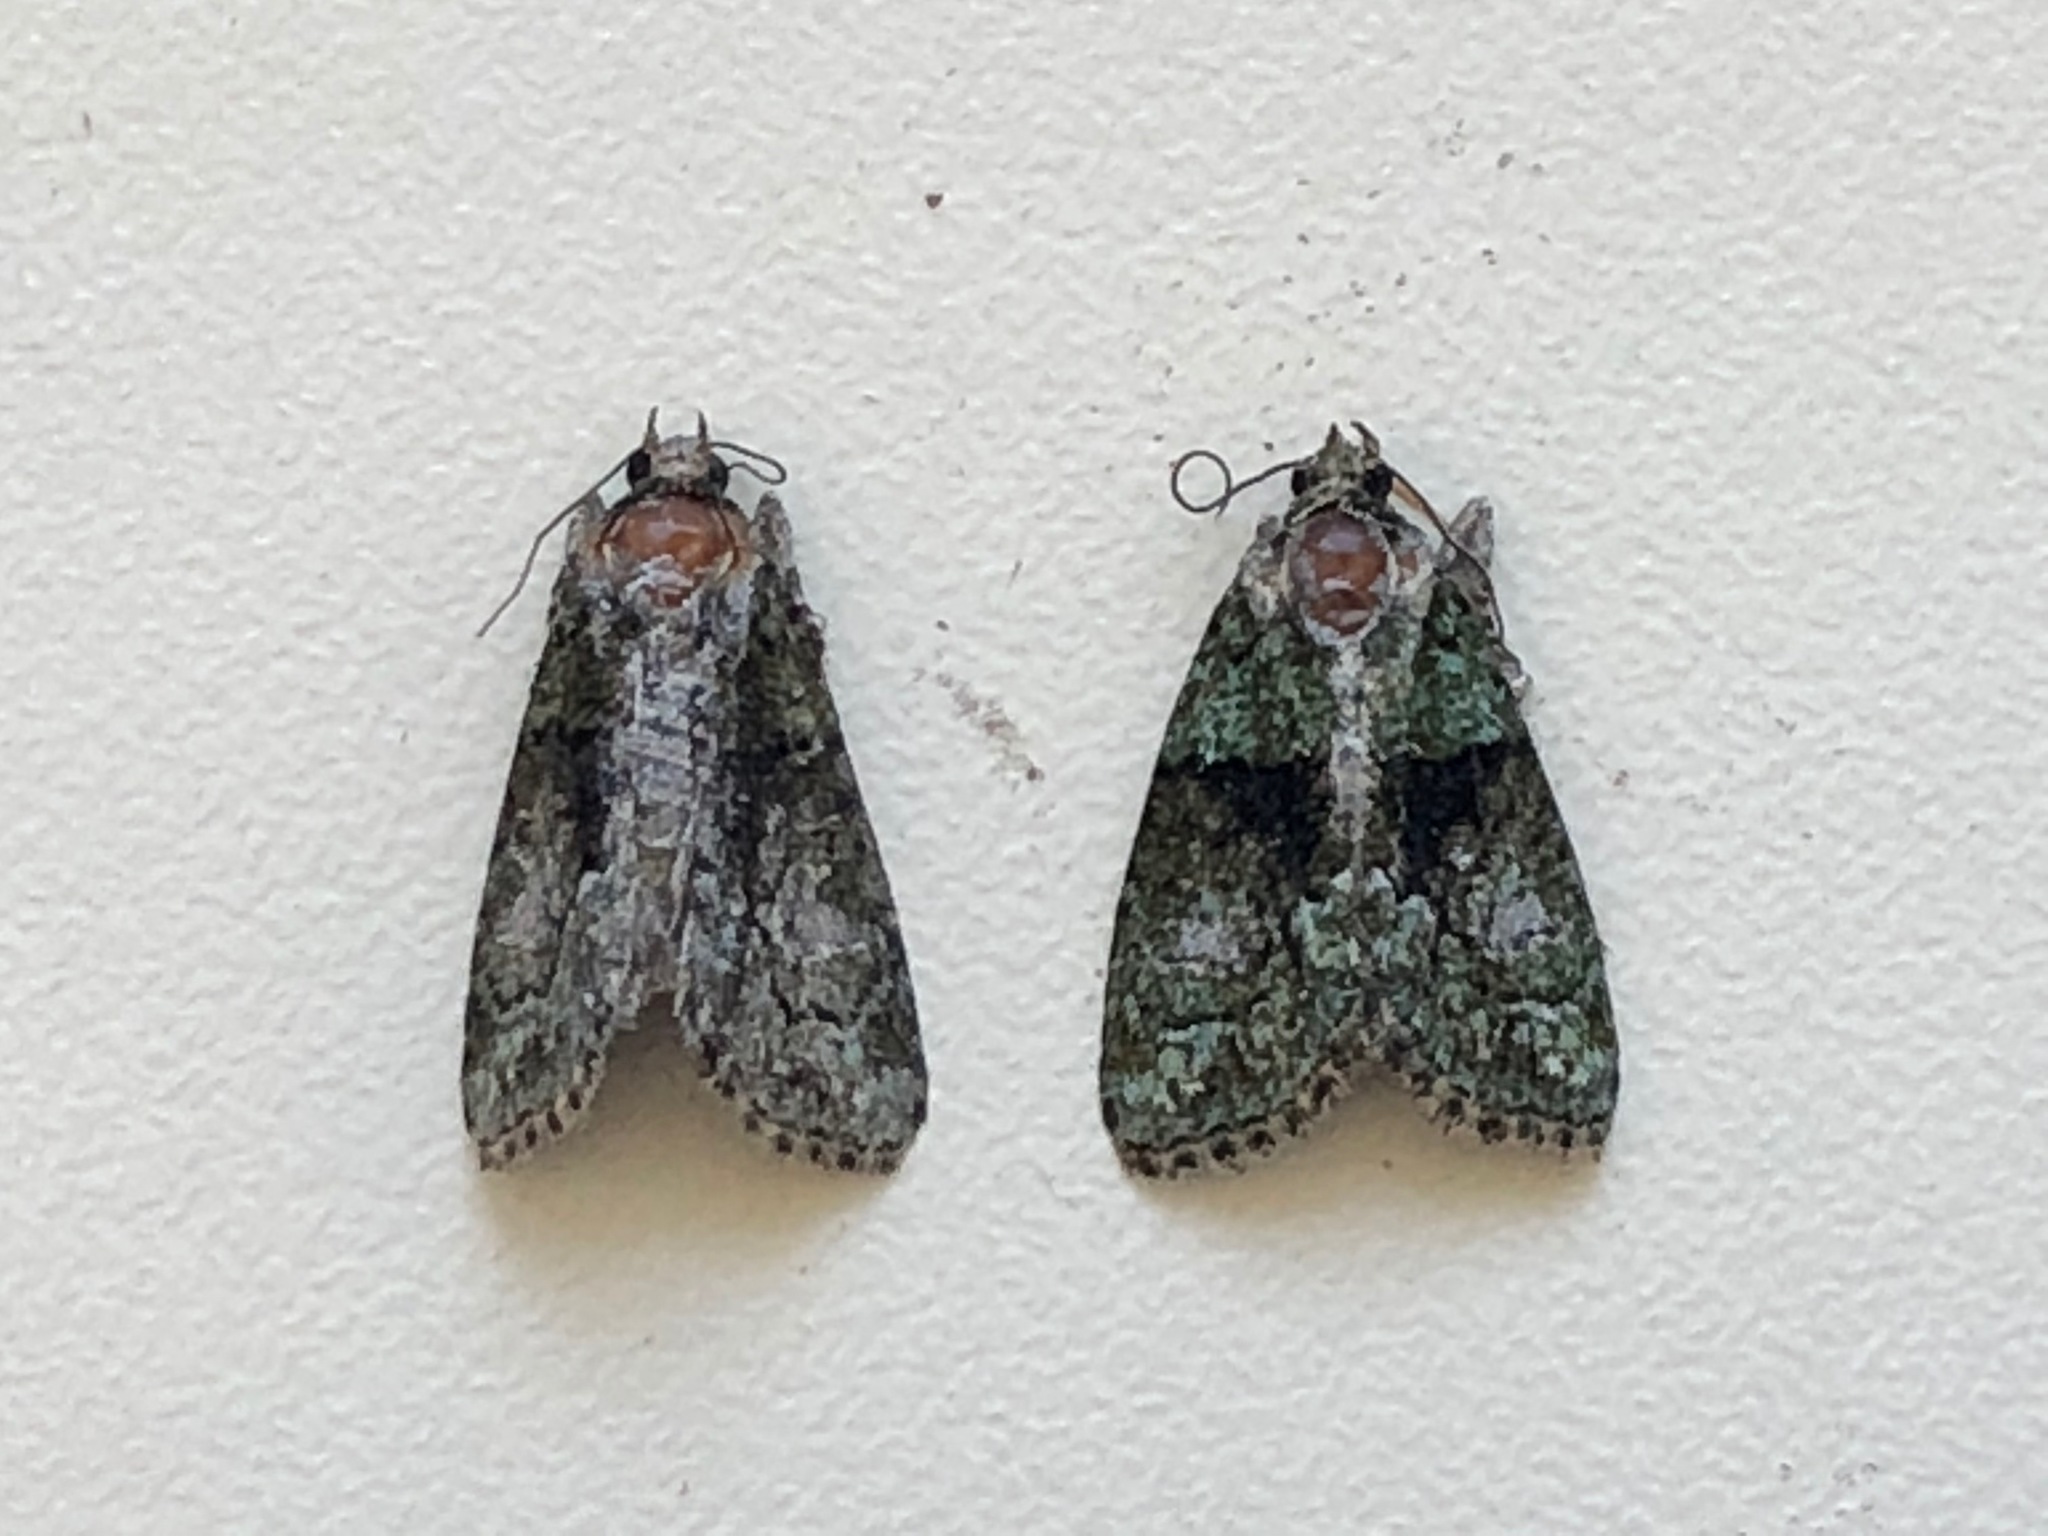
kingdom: Animalia
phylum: Arthropoda
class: Insecta
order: Lepidoptera
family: Noctuidae
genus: Cryphia
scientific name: Cryphia algae
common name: Tree-lichen beauty
